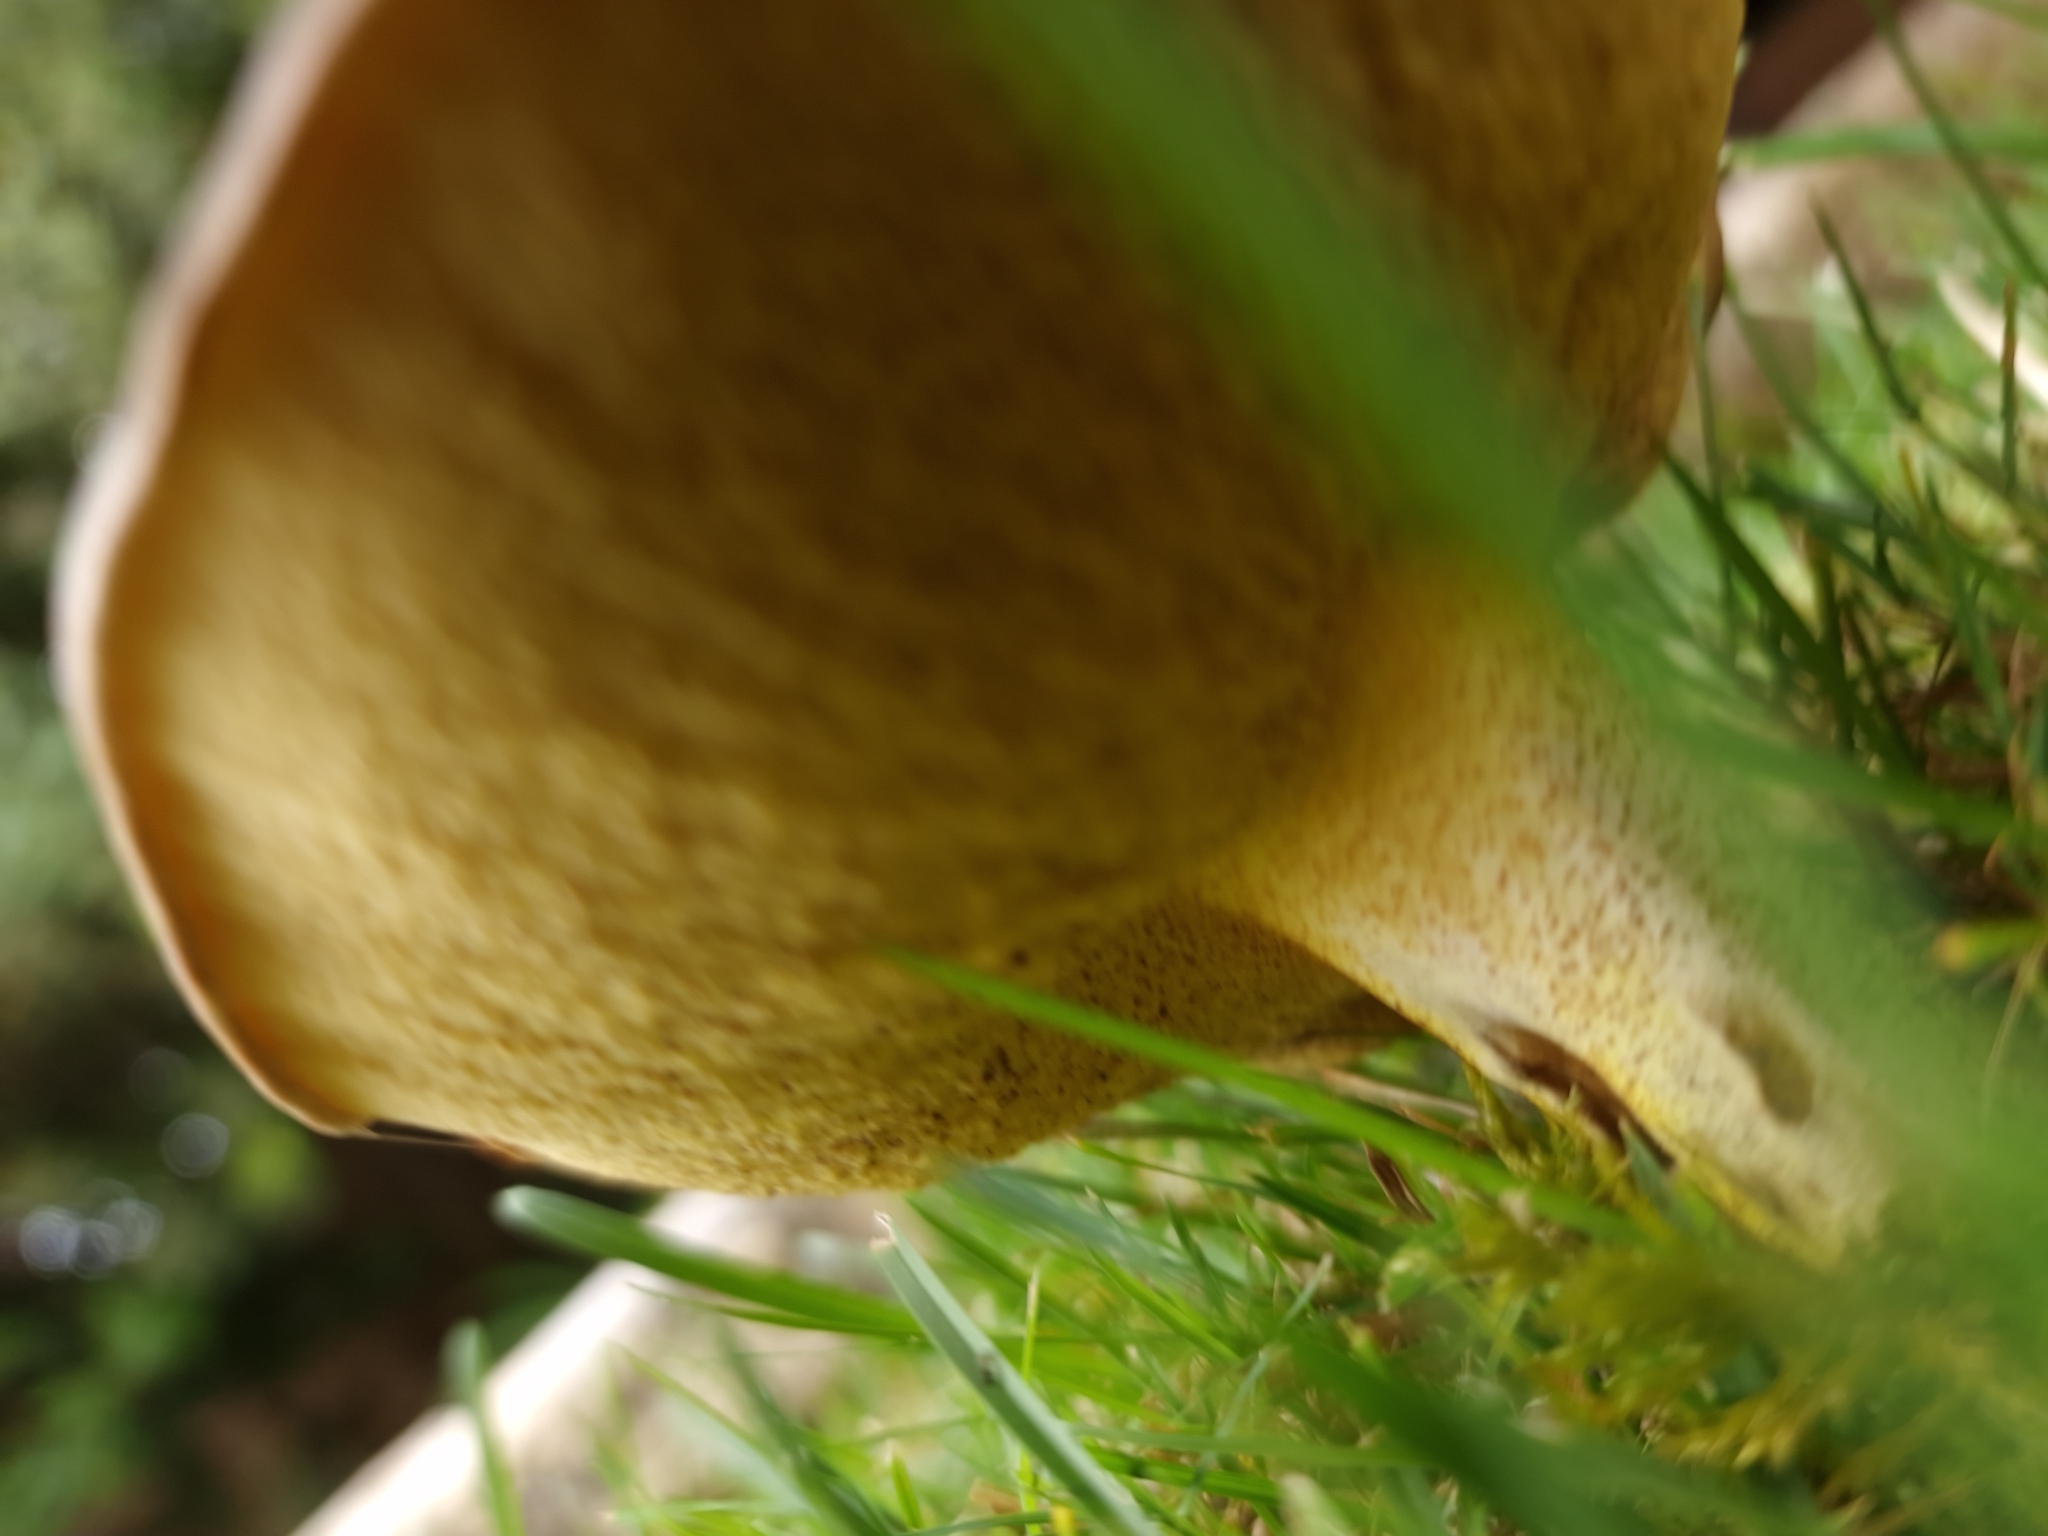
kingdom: Fungi
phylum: Basidiomycota
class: Agaricomycetes
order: Boletales
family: Suillaceae
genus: Suillus
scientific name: Suillus collinitus
